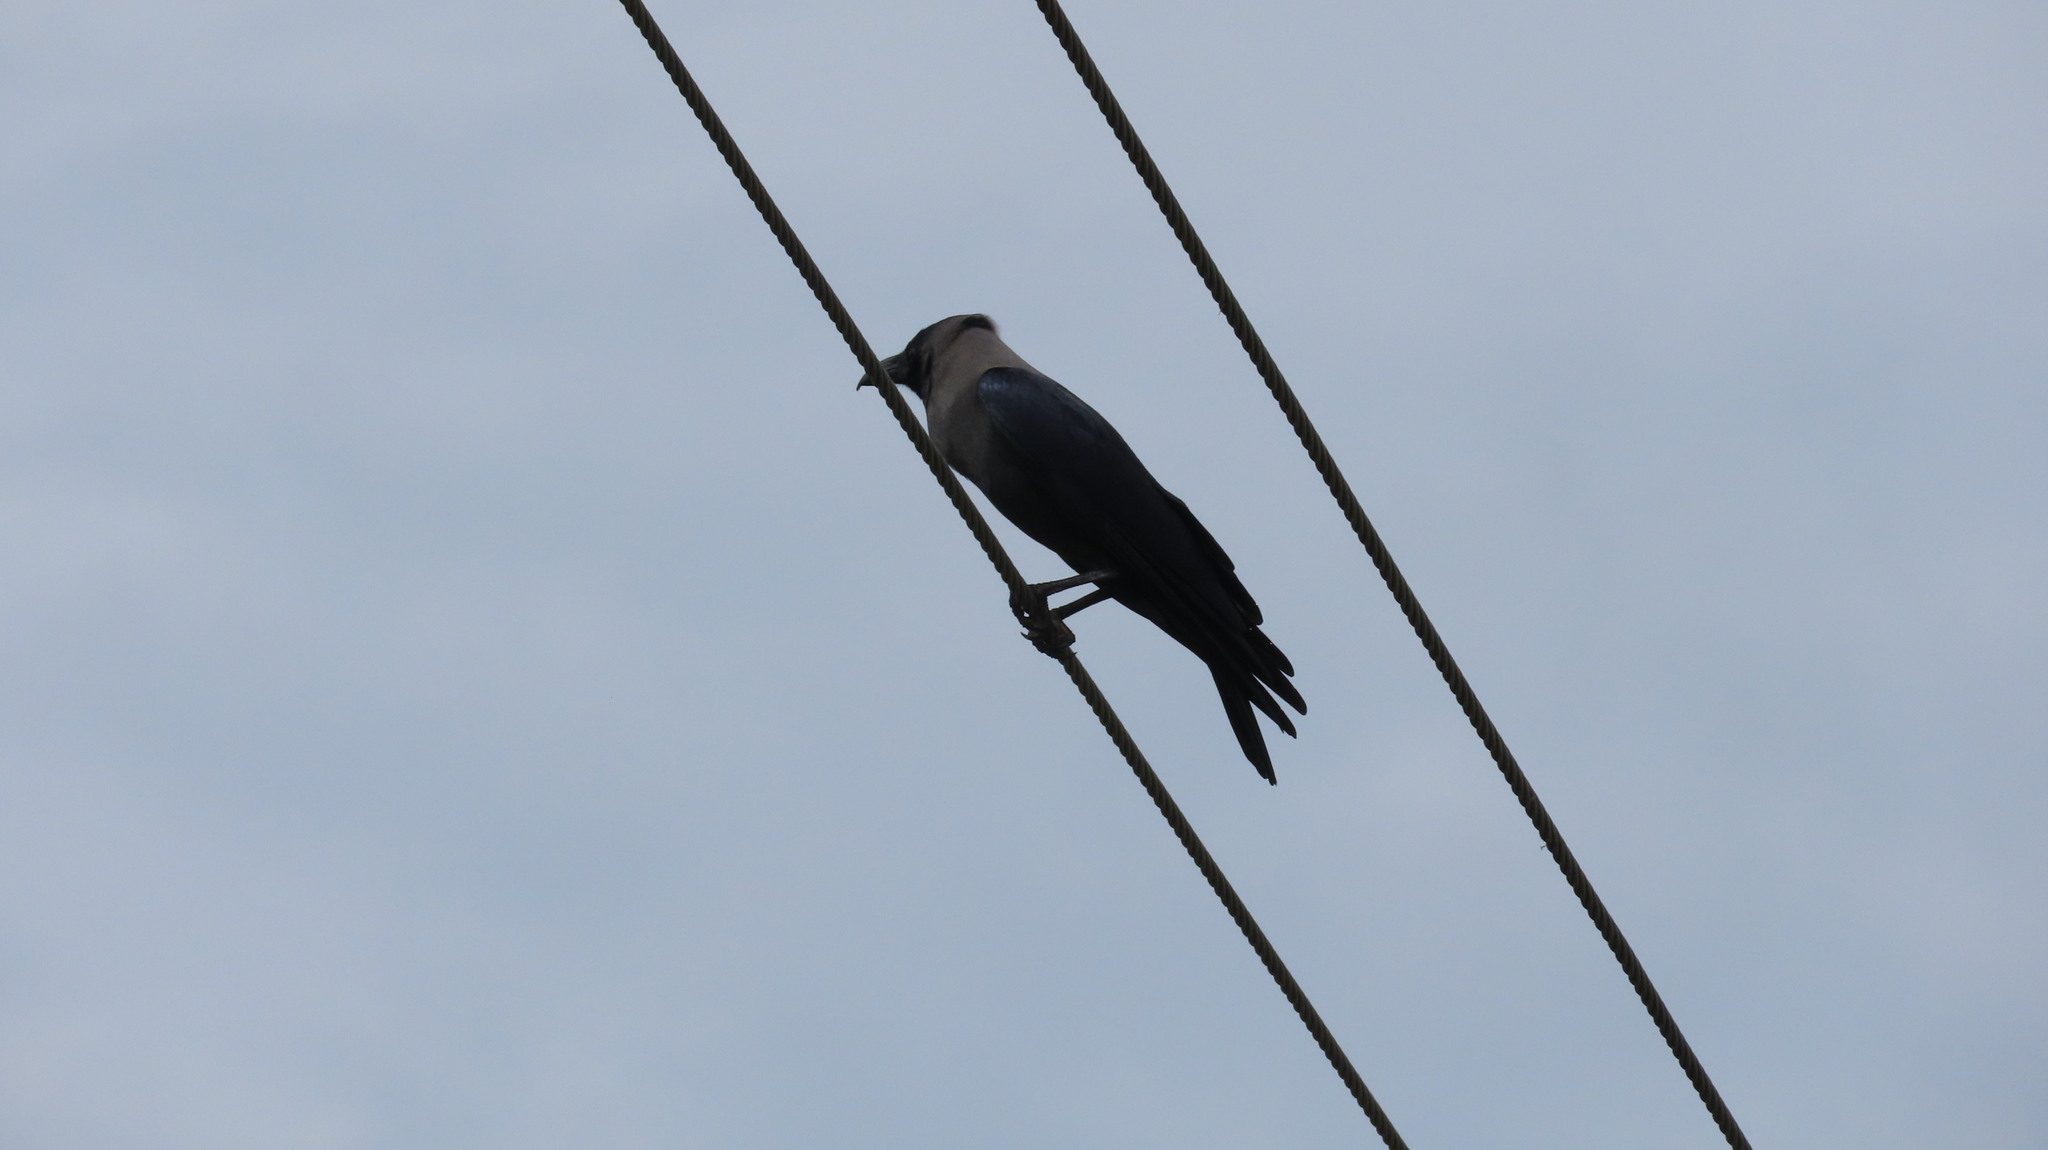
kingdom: Animalia
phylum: Chordata
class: Aves
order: Passeriformes
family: Corvidae
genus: Corvus
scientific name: Corvus splendens
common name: House crow
